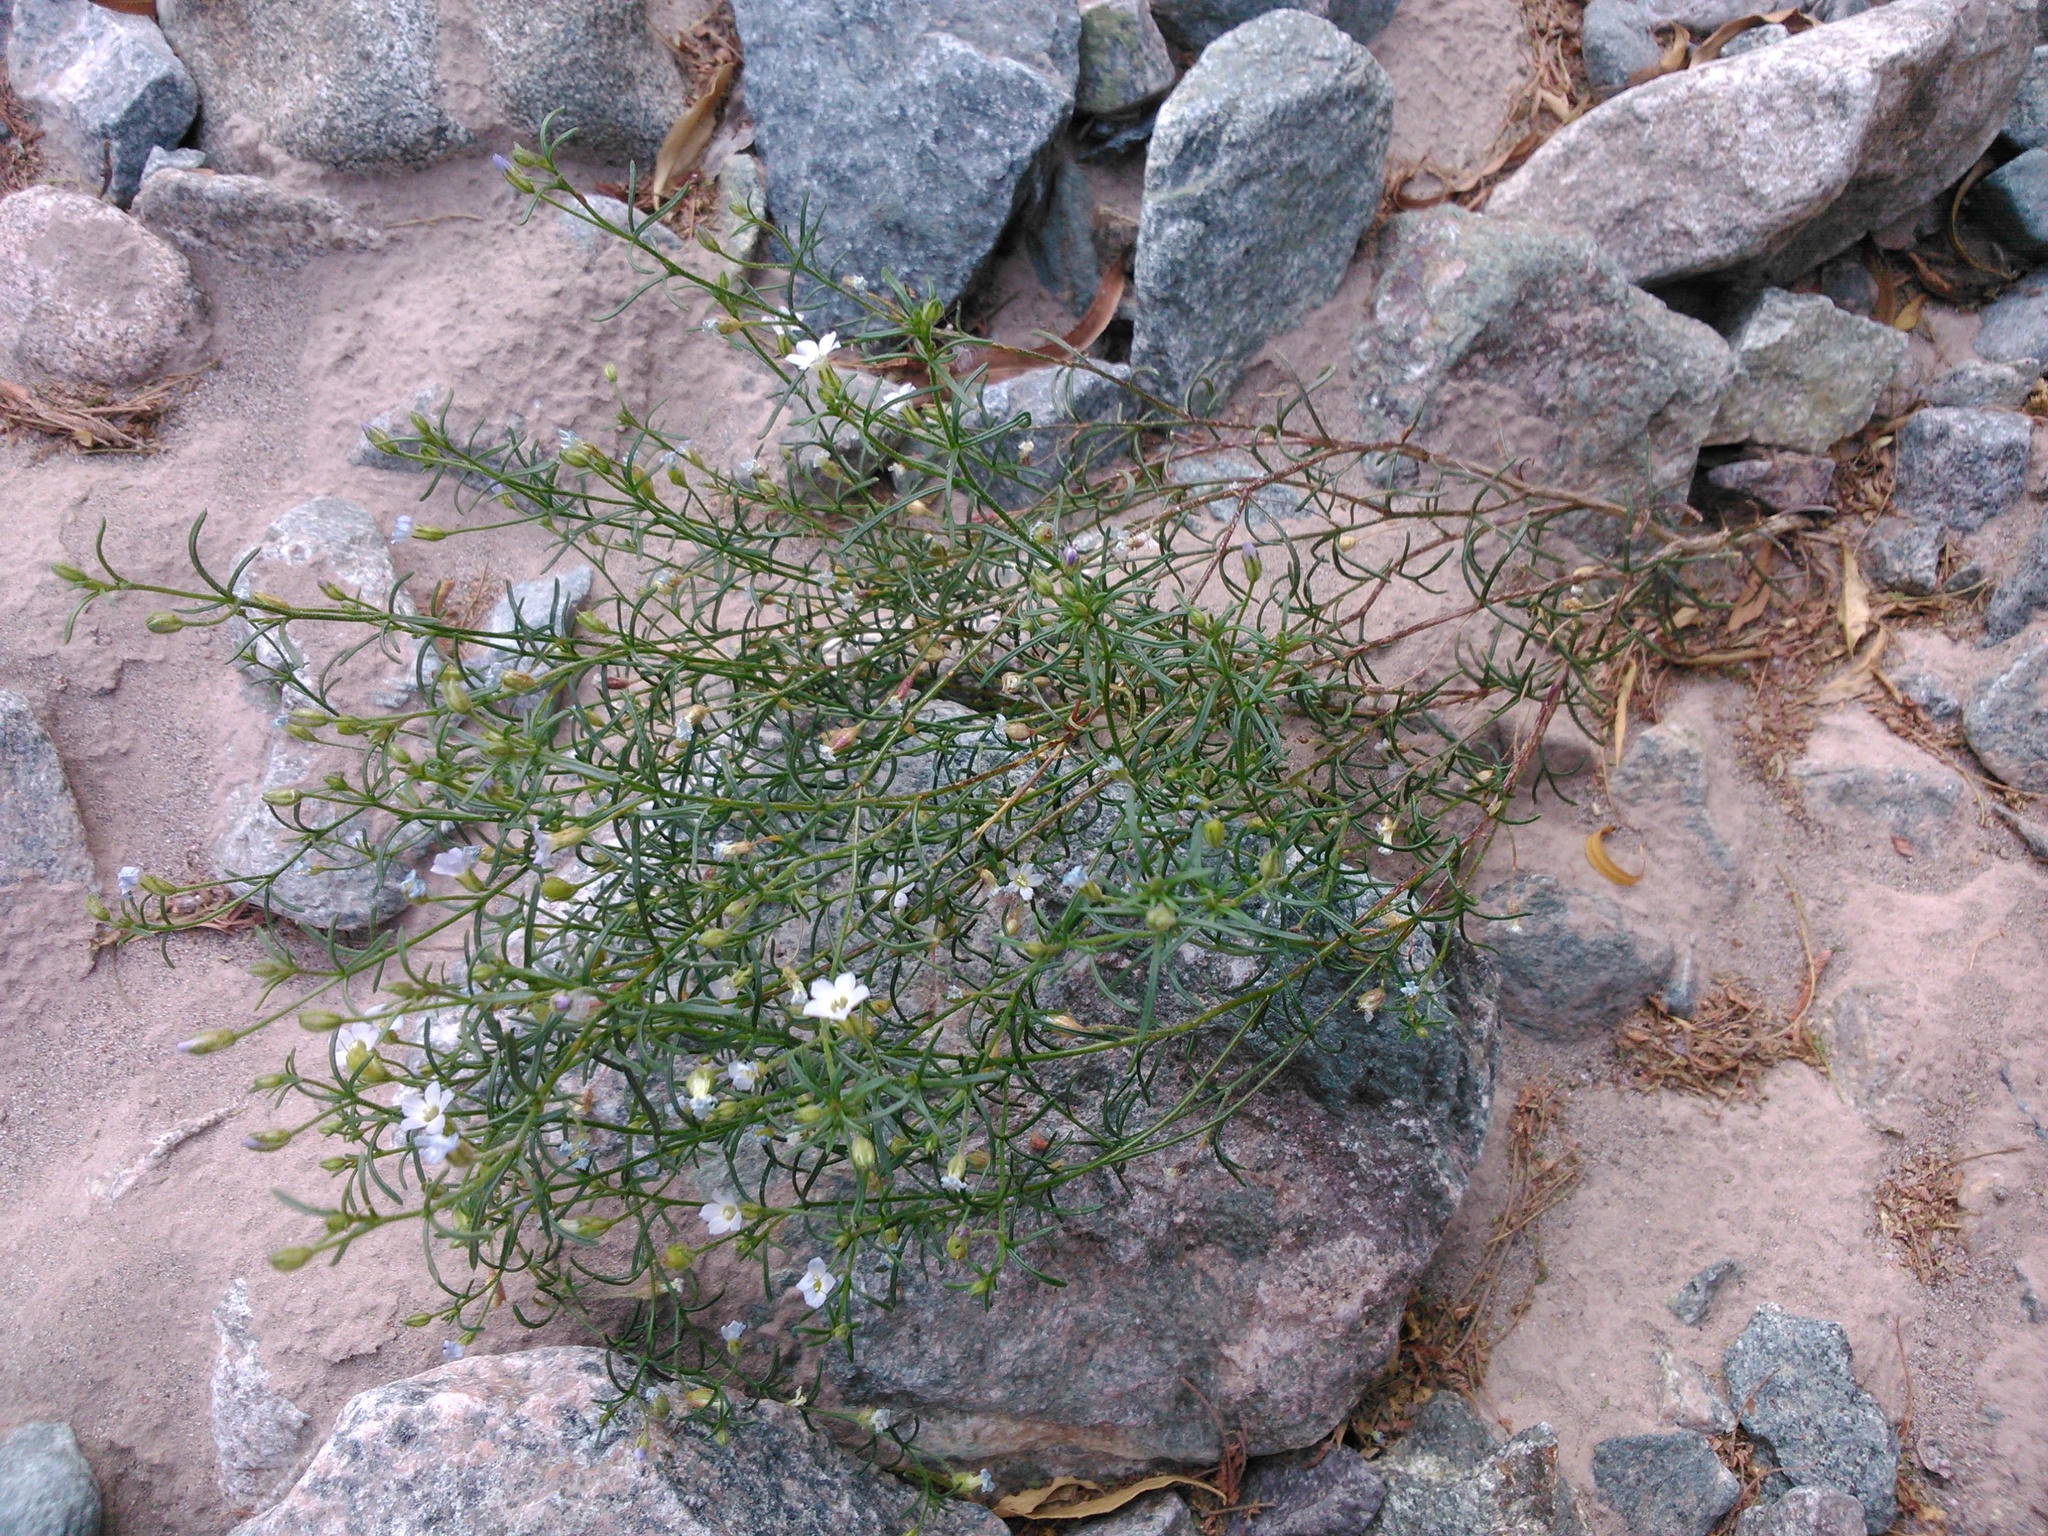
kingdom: Plantae
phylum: Tracheophyta
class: Magnoliopsida
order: Ericales
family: Polemoniaceae
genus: Dayia
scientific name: Dayia glutinosa
